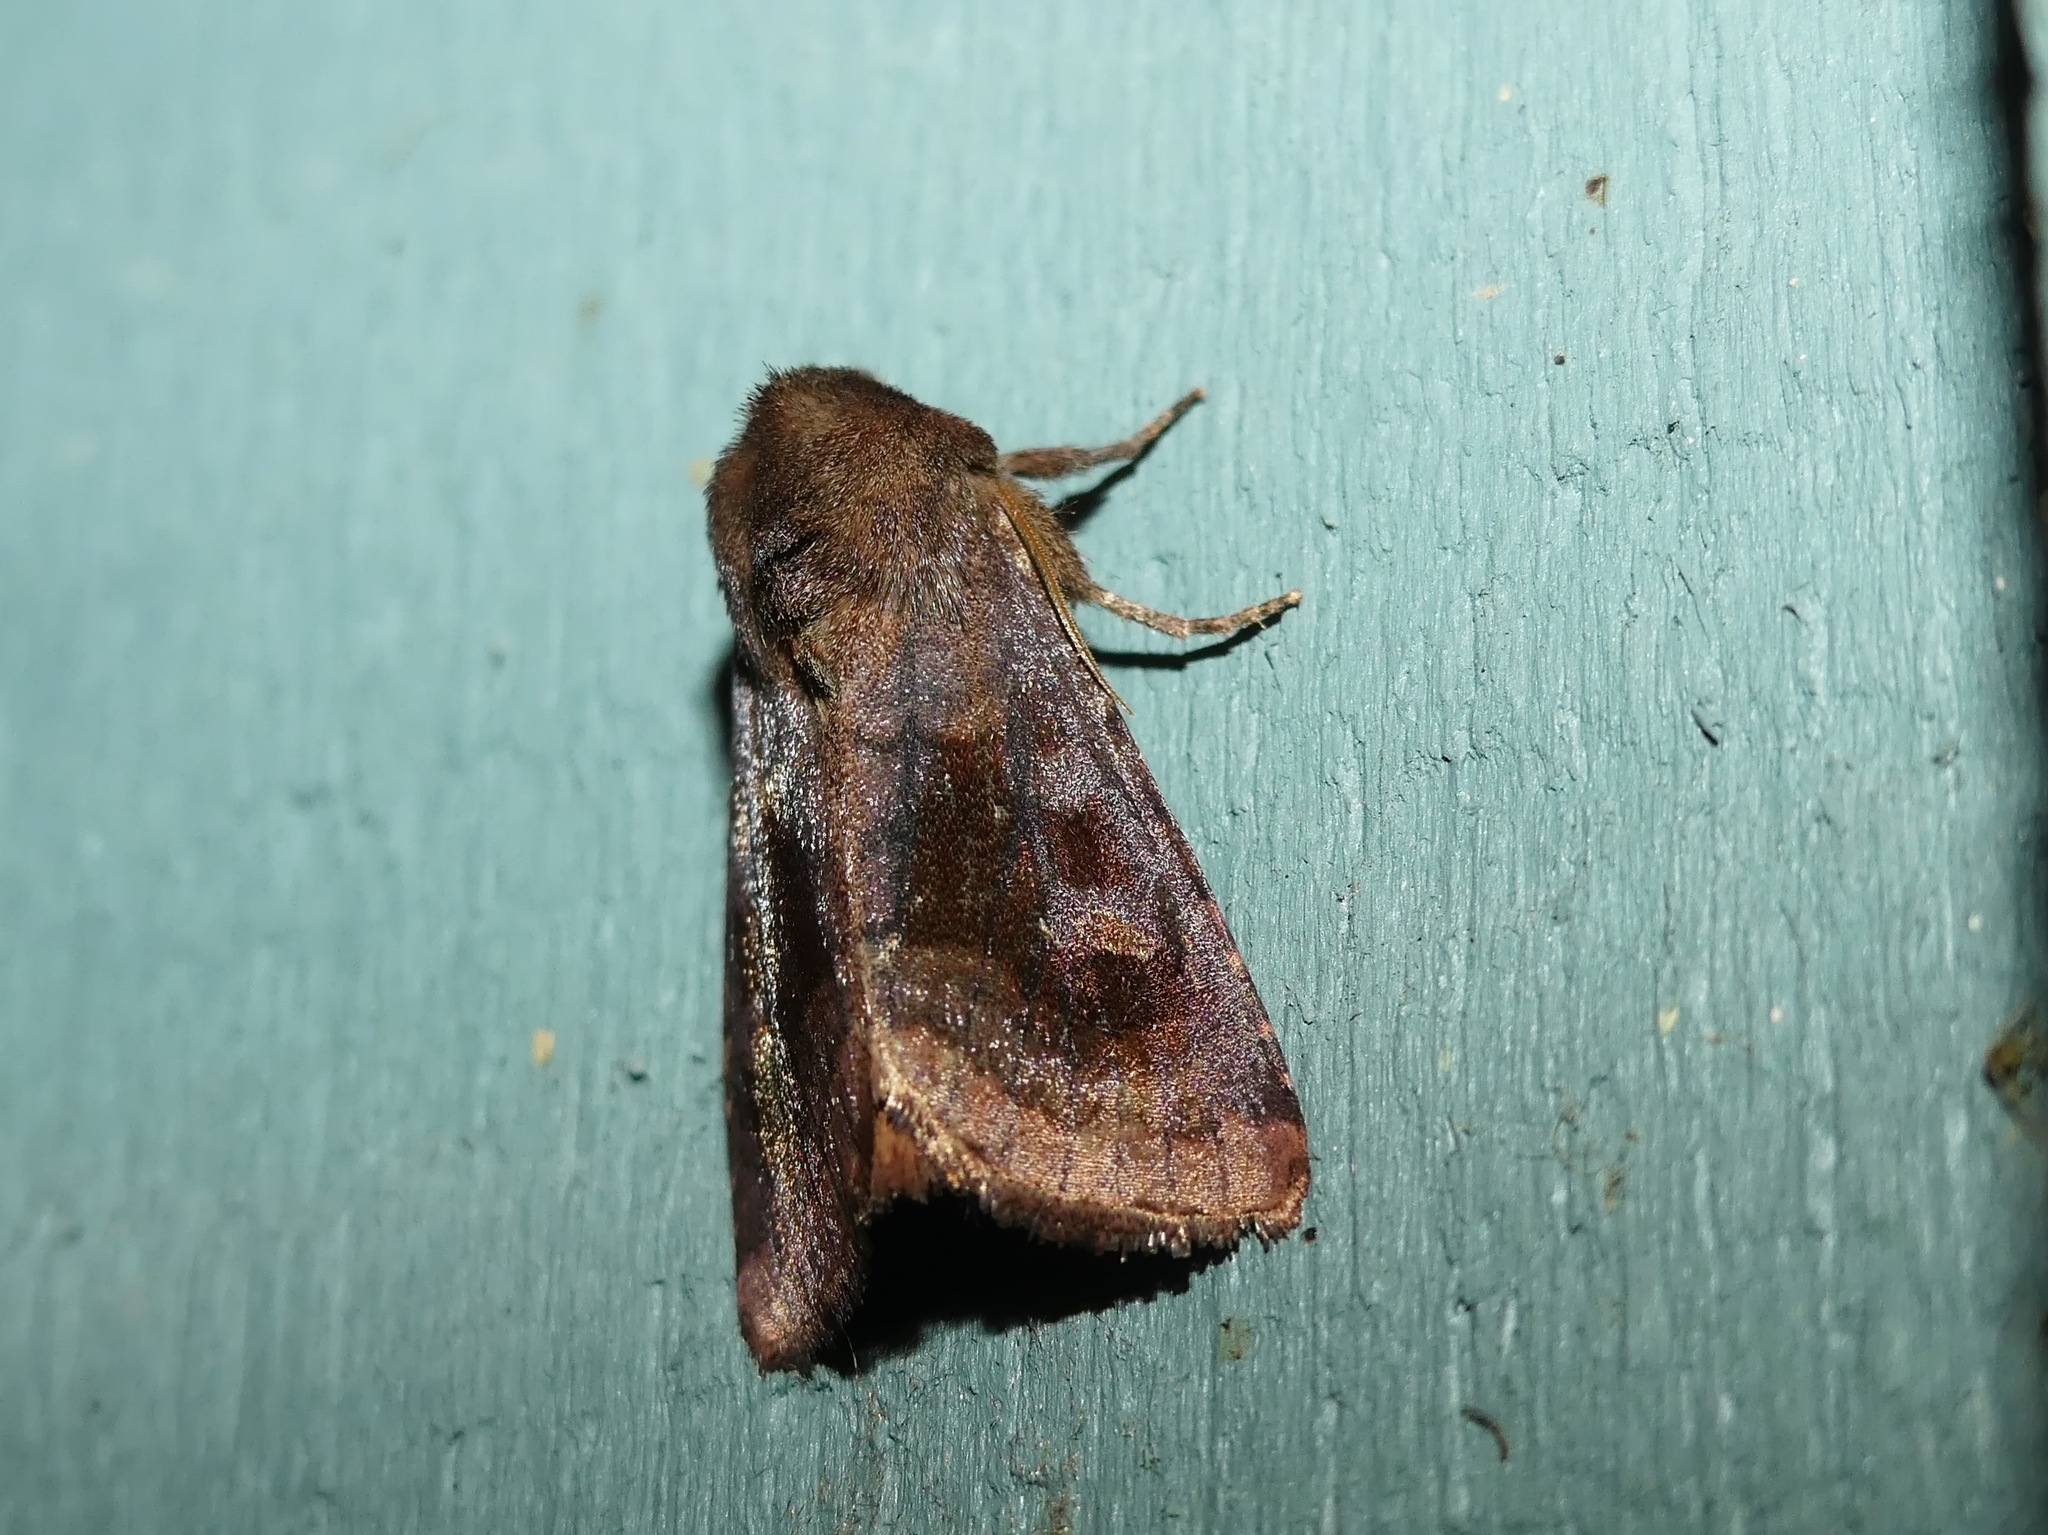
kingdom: Animalia
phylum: Arthropoda
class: Insecta
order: Lepidoptera
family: Noctuidae
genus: Nephelodes
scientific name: Nephelodes minians
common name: Bronzed cutworm
